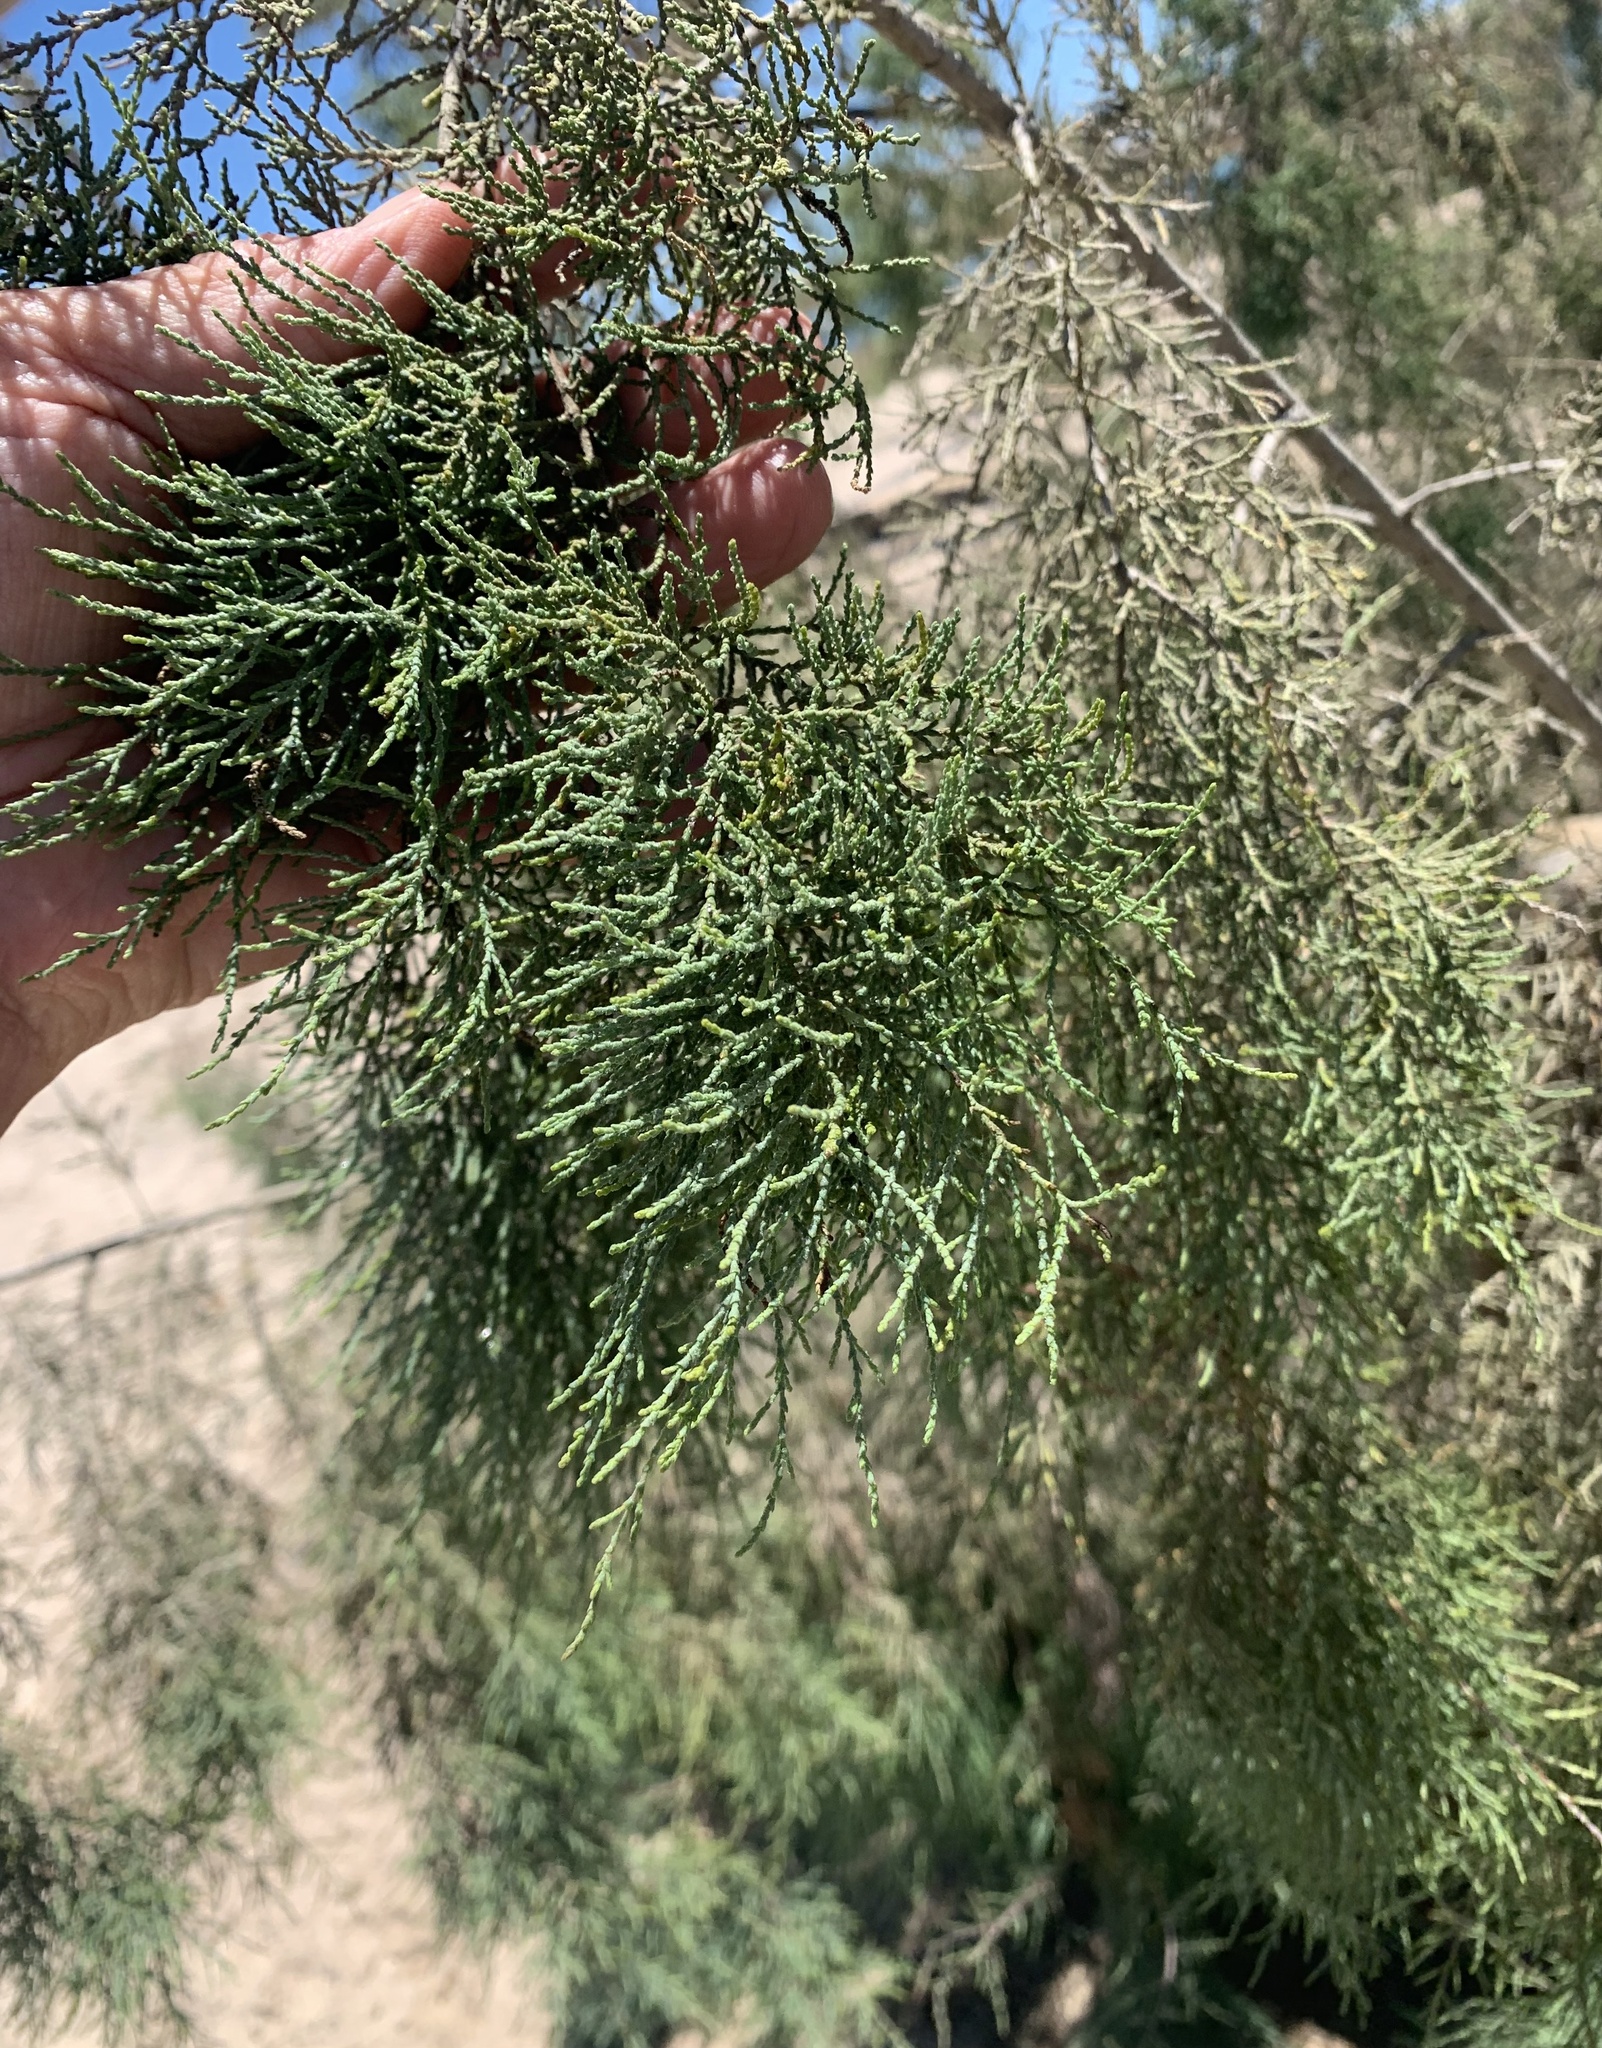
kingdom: Plantae
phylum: Tracheophyta
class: Magnoliopsida
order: Caryophyllales
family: Tamaricaceae
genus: Tamarix
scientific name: Tamarix usneoides
